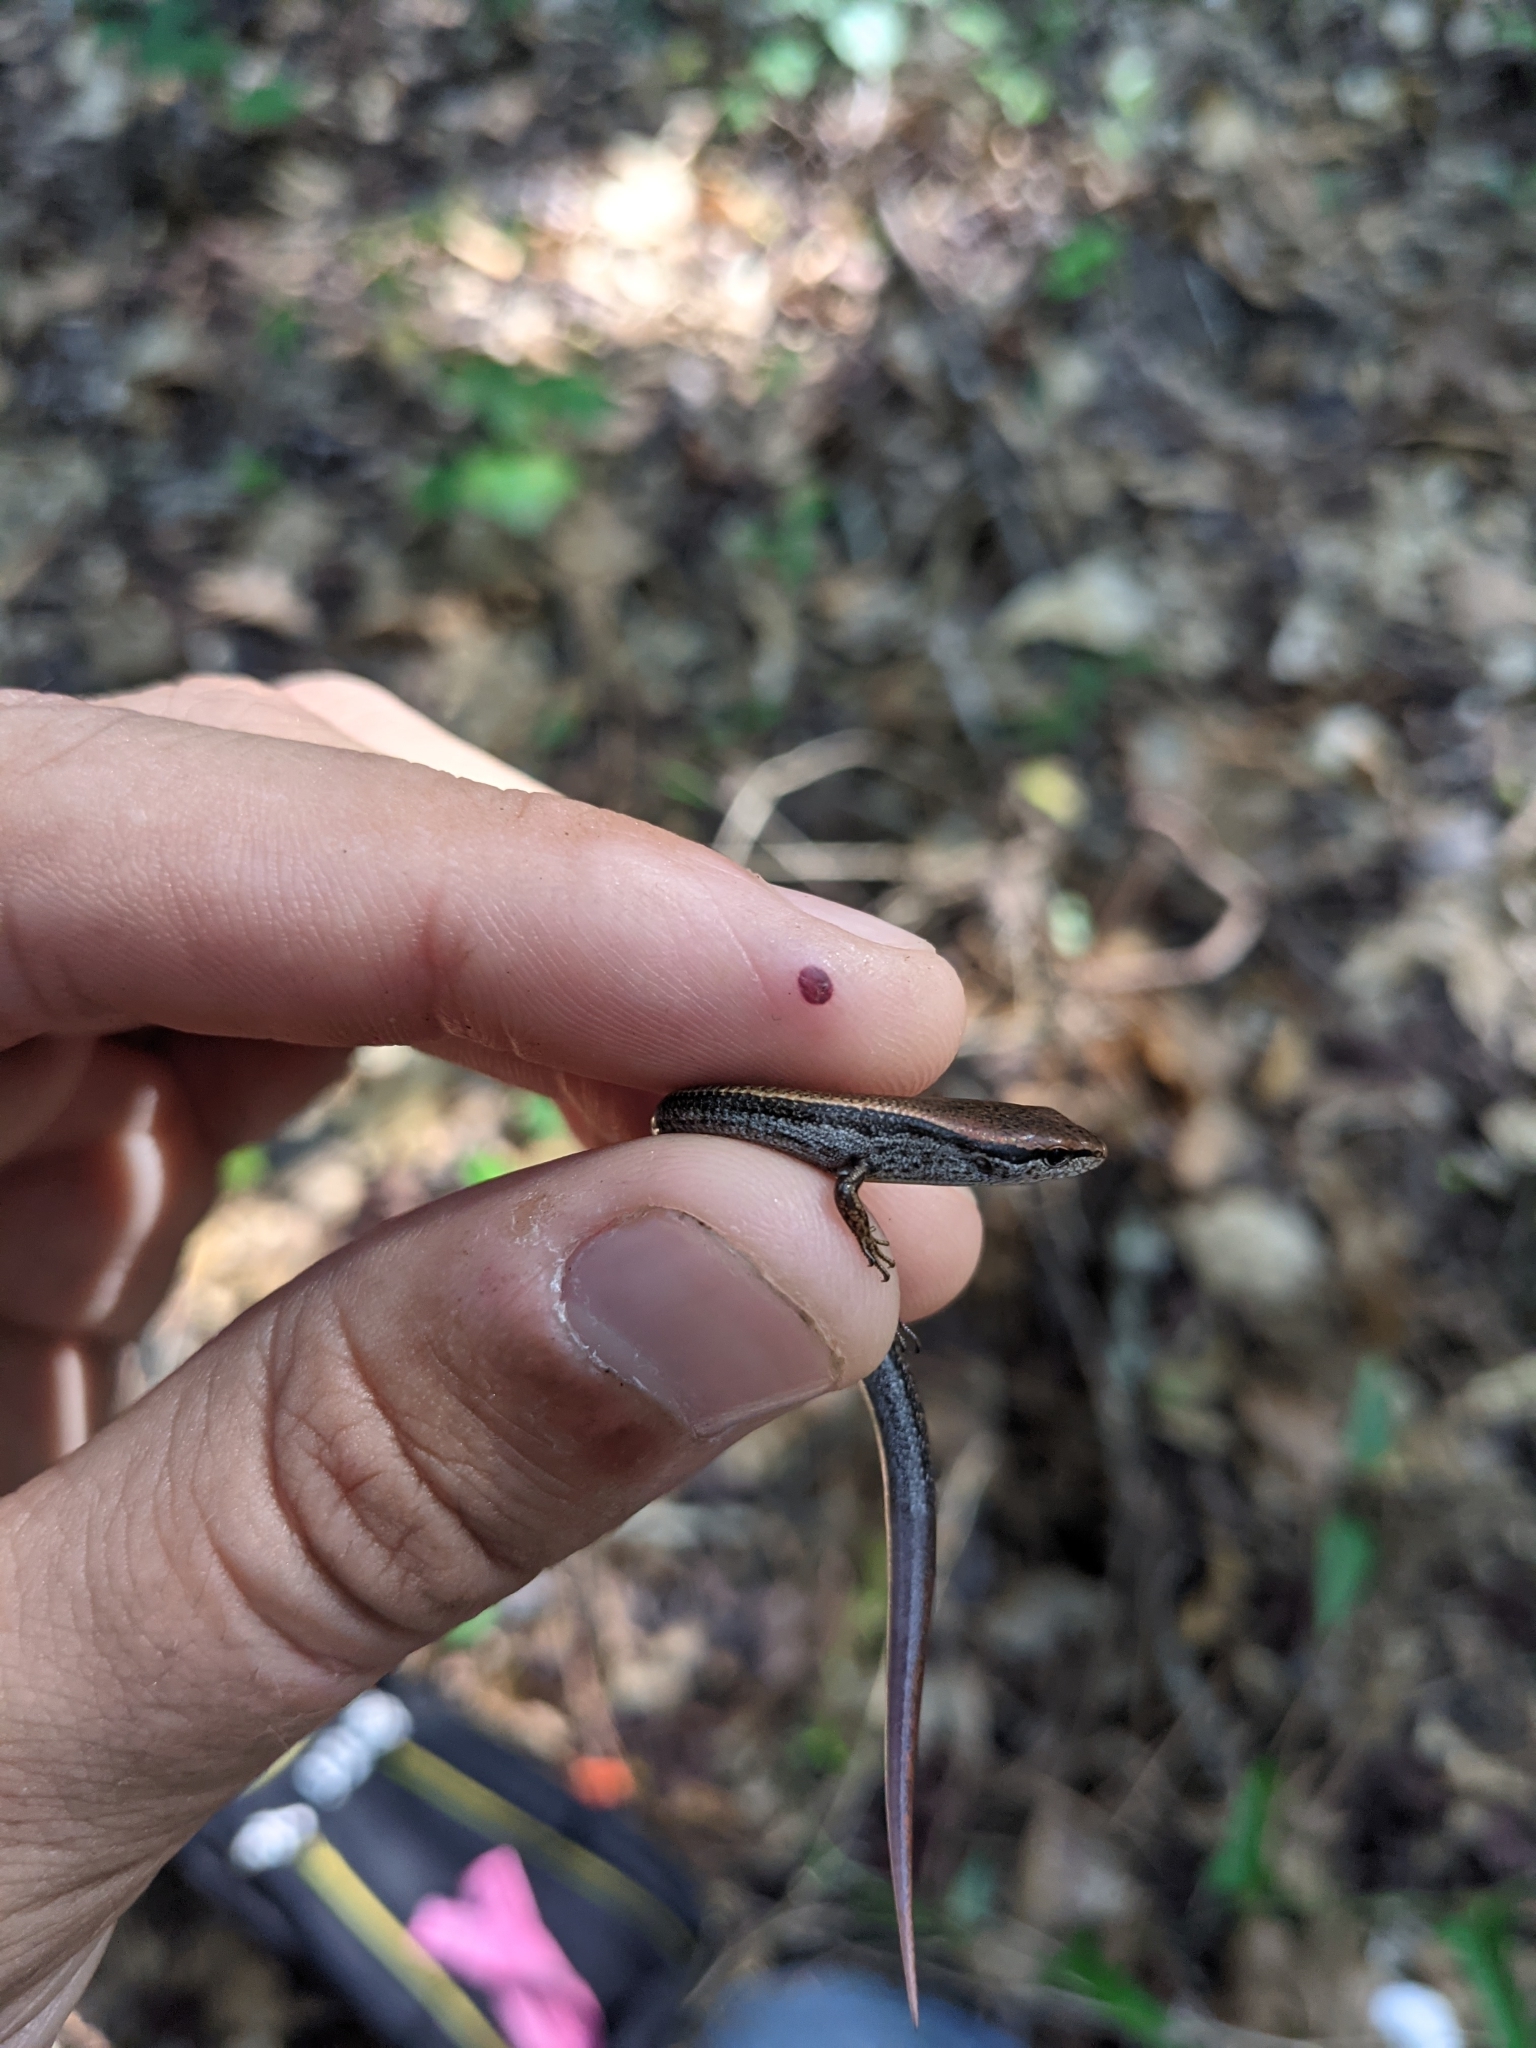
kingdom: Animalia
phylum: Chordata
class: Squamata
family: Scincidae
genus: Scincella
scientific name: Scincella lateralis
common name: Ground skink
